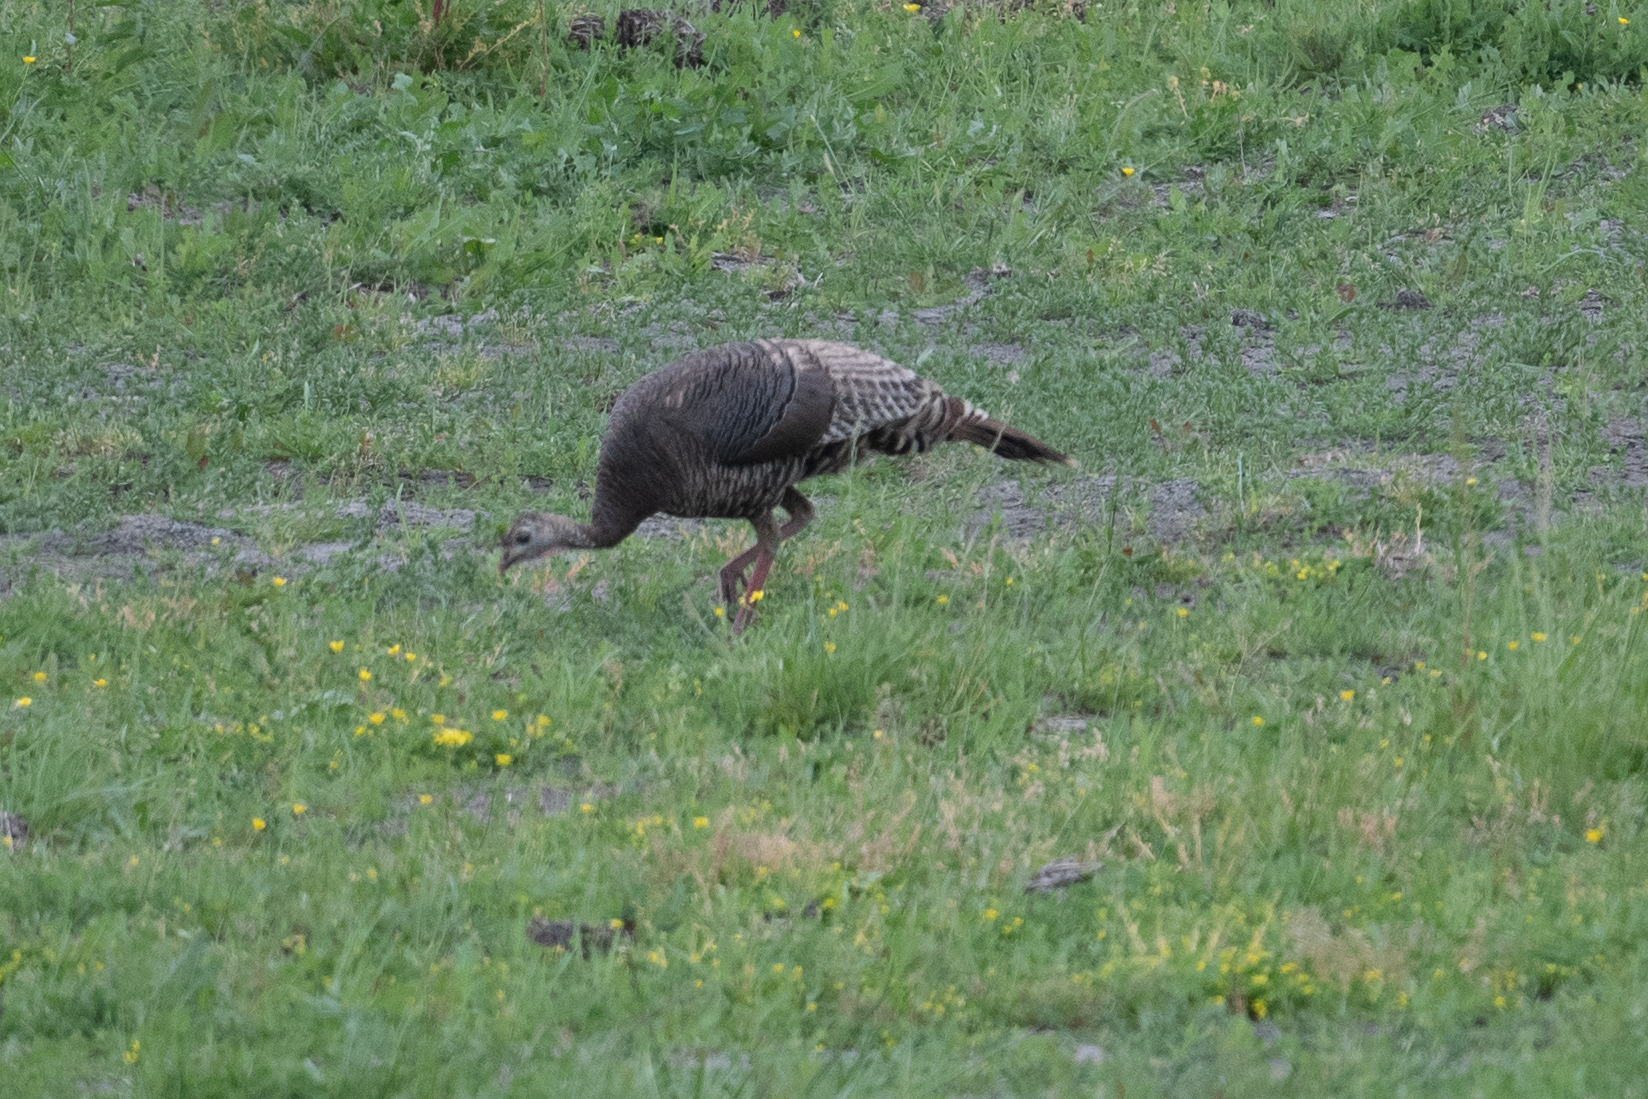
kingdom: Animalia
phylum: Chordata
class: Aves
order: Galliformes
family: Phasianidae
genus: Meleagris
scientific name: Meleagris gallopavo
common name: Wild turkey
